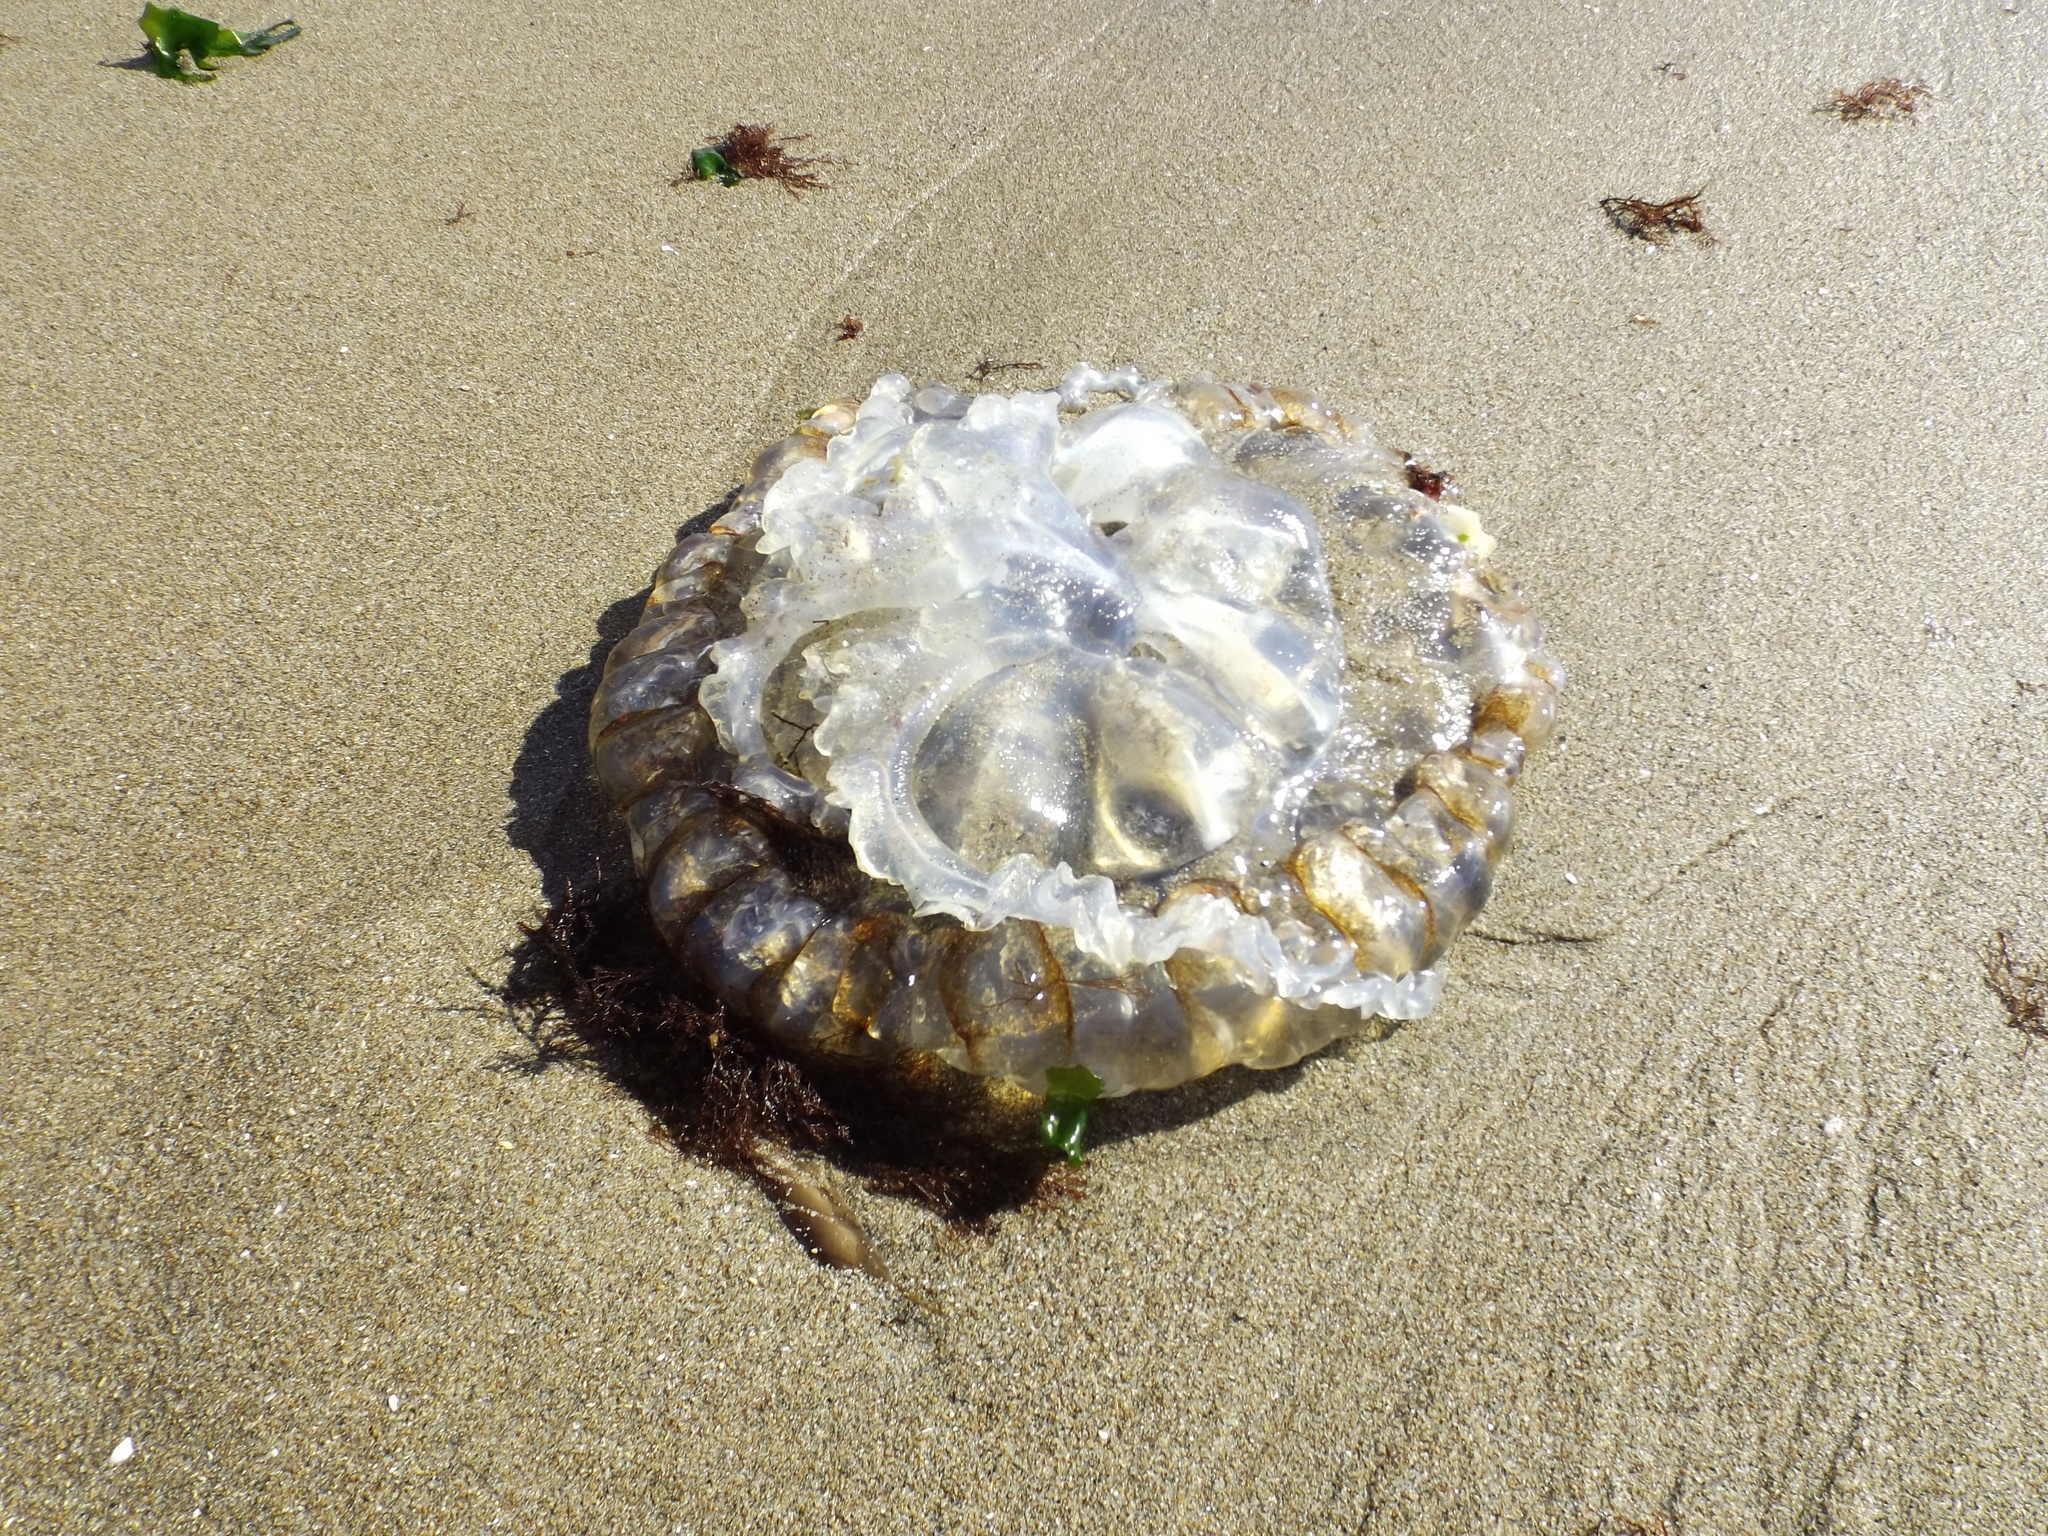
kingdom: Animalia
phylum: Cnidaria
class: Scyphozoa
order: Semaeostomeae
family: Pelagiidae
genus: Chrysaora
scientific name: Chrysaora plocamia
